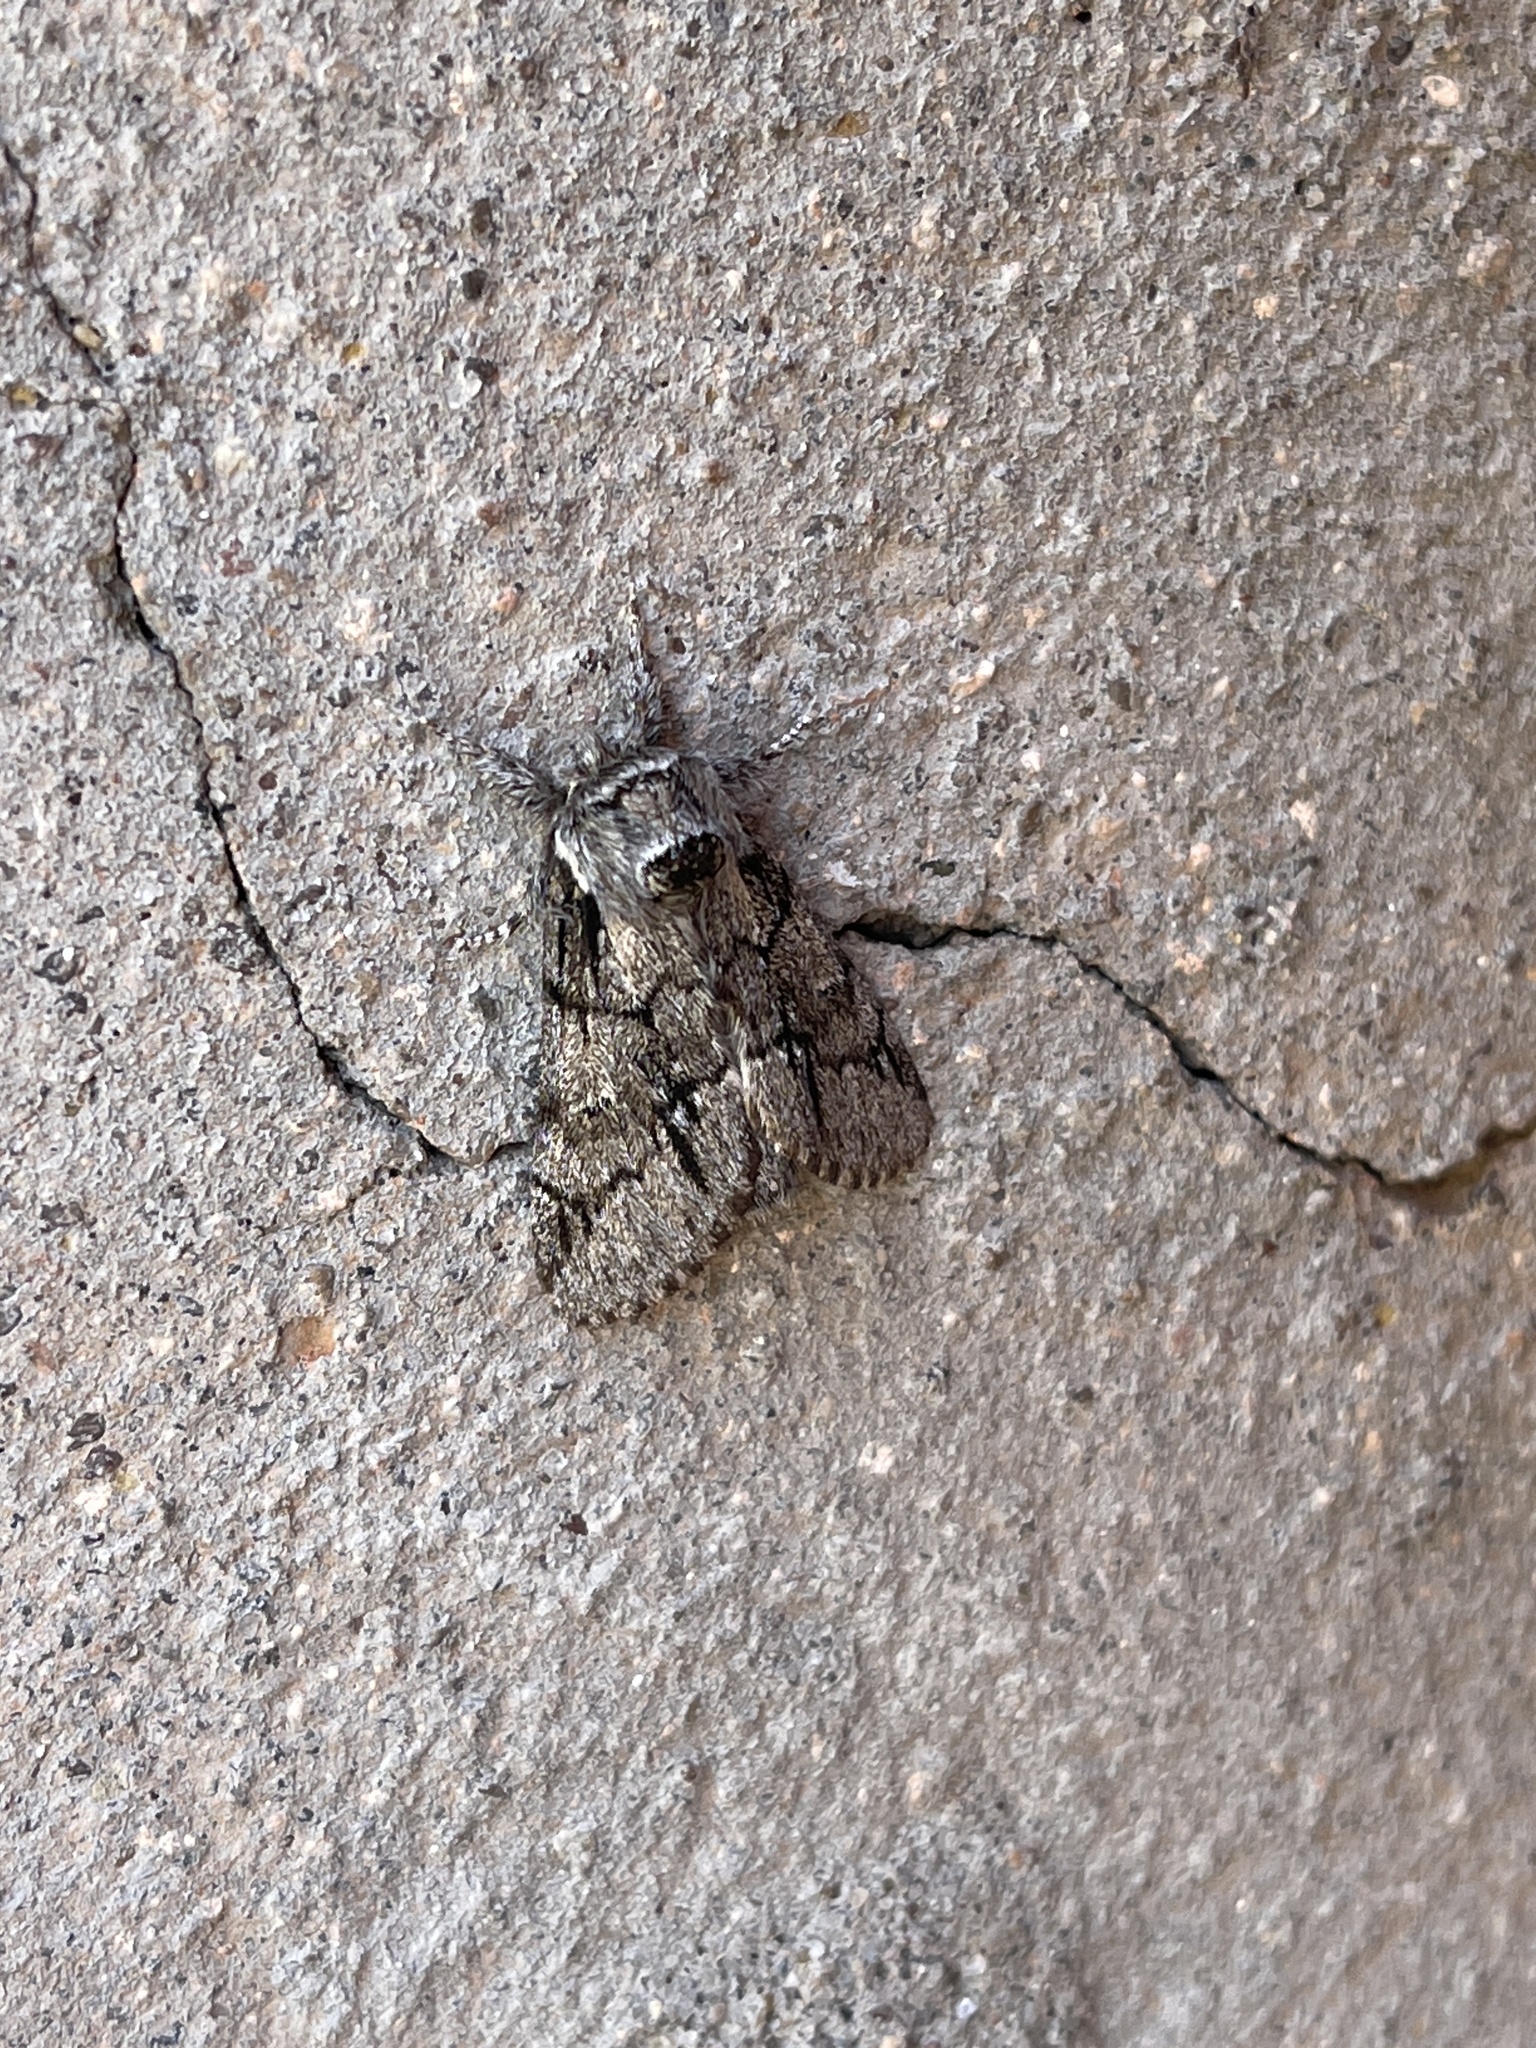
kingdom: Animalia
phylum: Arthropoda
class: Insecta
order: Lepidoptera
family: Notodontidae
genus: Paraeschra
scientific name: Paraeschra tortuosa
